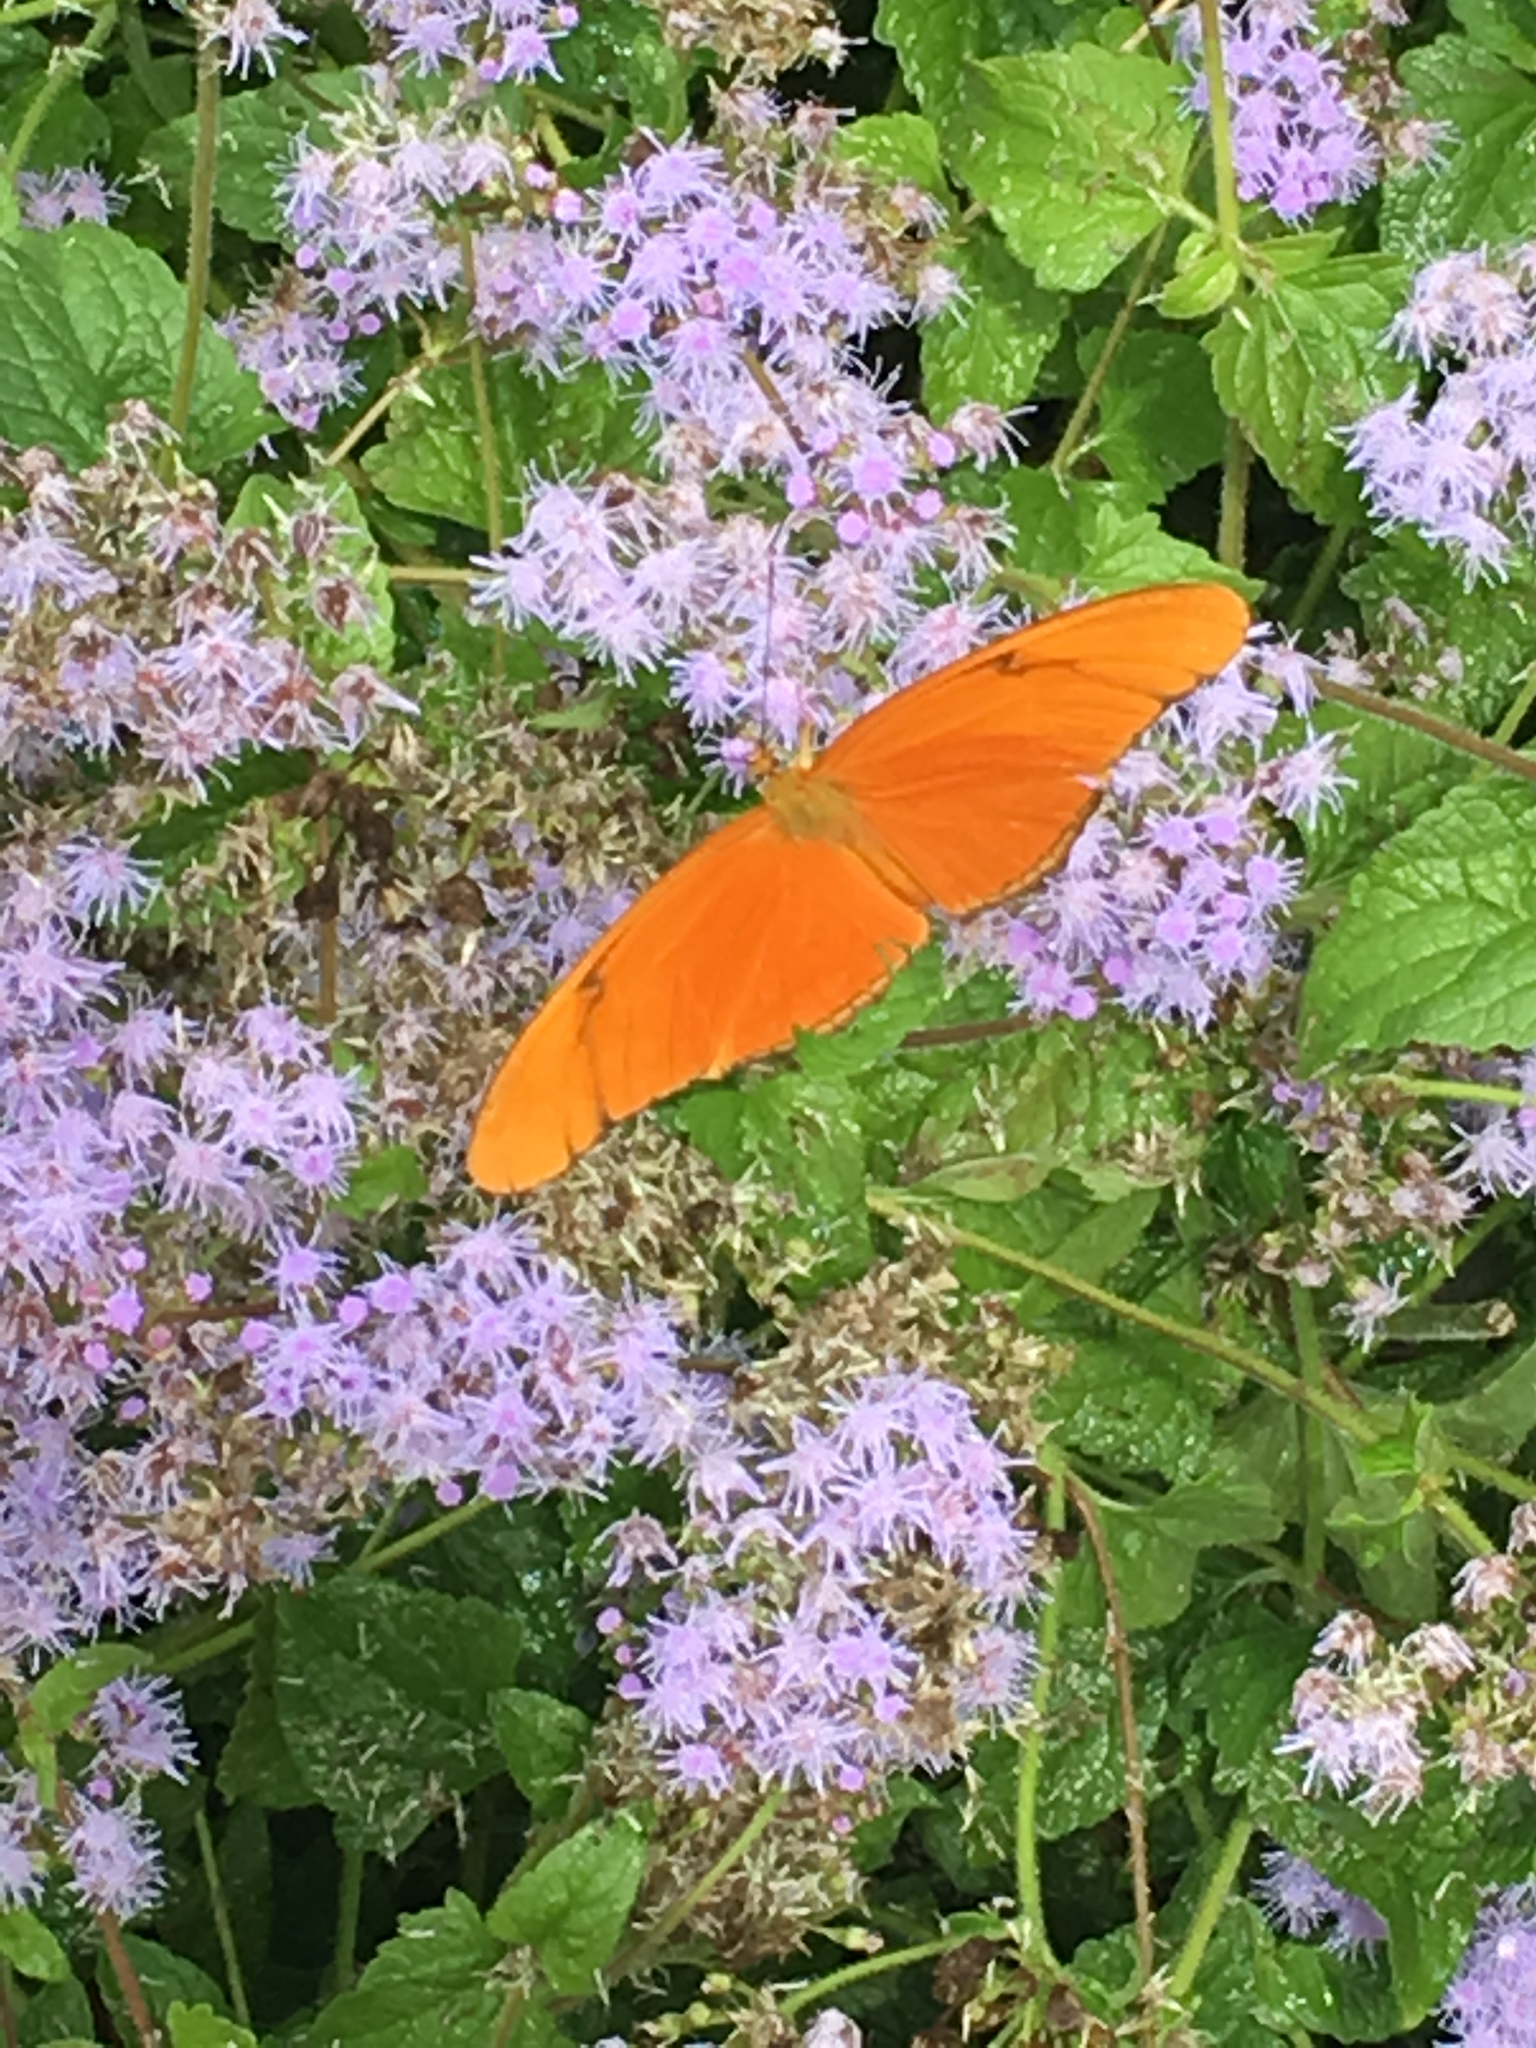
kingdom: Animalia
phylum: Arthropoda
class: Insecta
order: Lepidoptera
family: Nymphalidae
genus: Dryas
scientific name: Dryas iulia
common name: Flambeau
